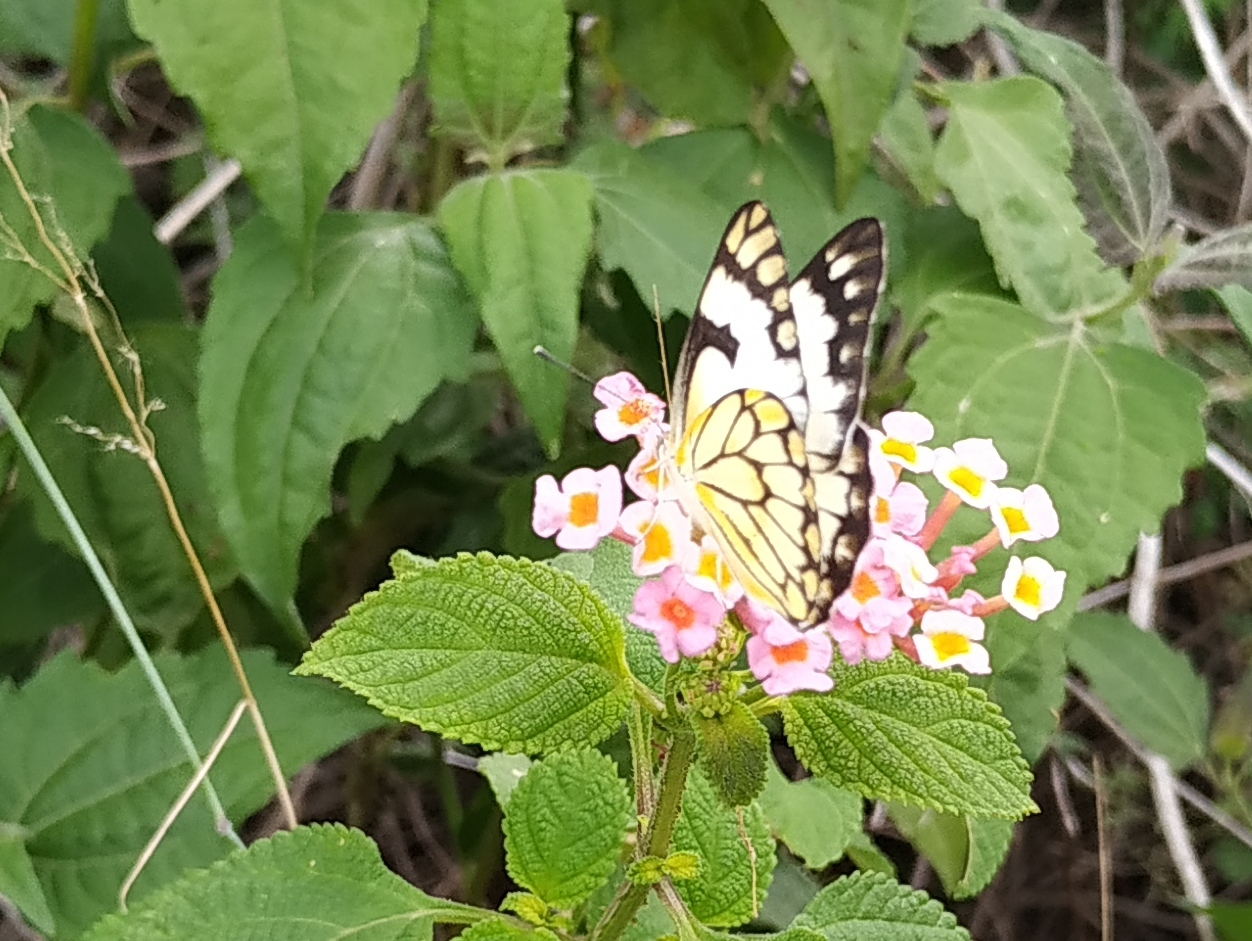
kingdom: Animalia
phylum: Arthropoda
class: Insecta
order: Lepidoptera
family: Pieridae
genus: Belenois
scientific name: Belenois aurota
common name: Brown-veined white
